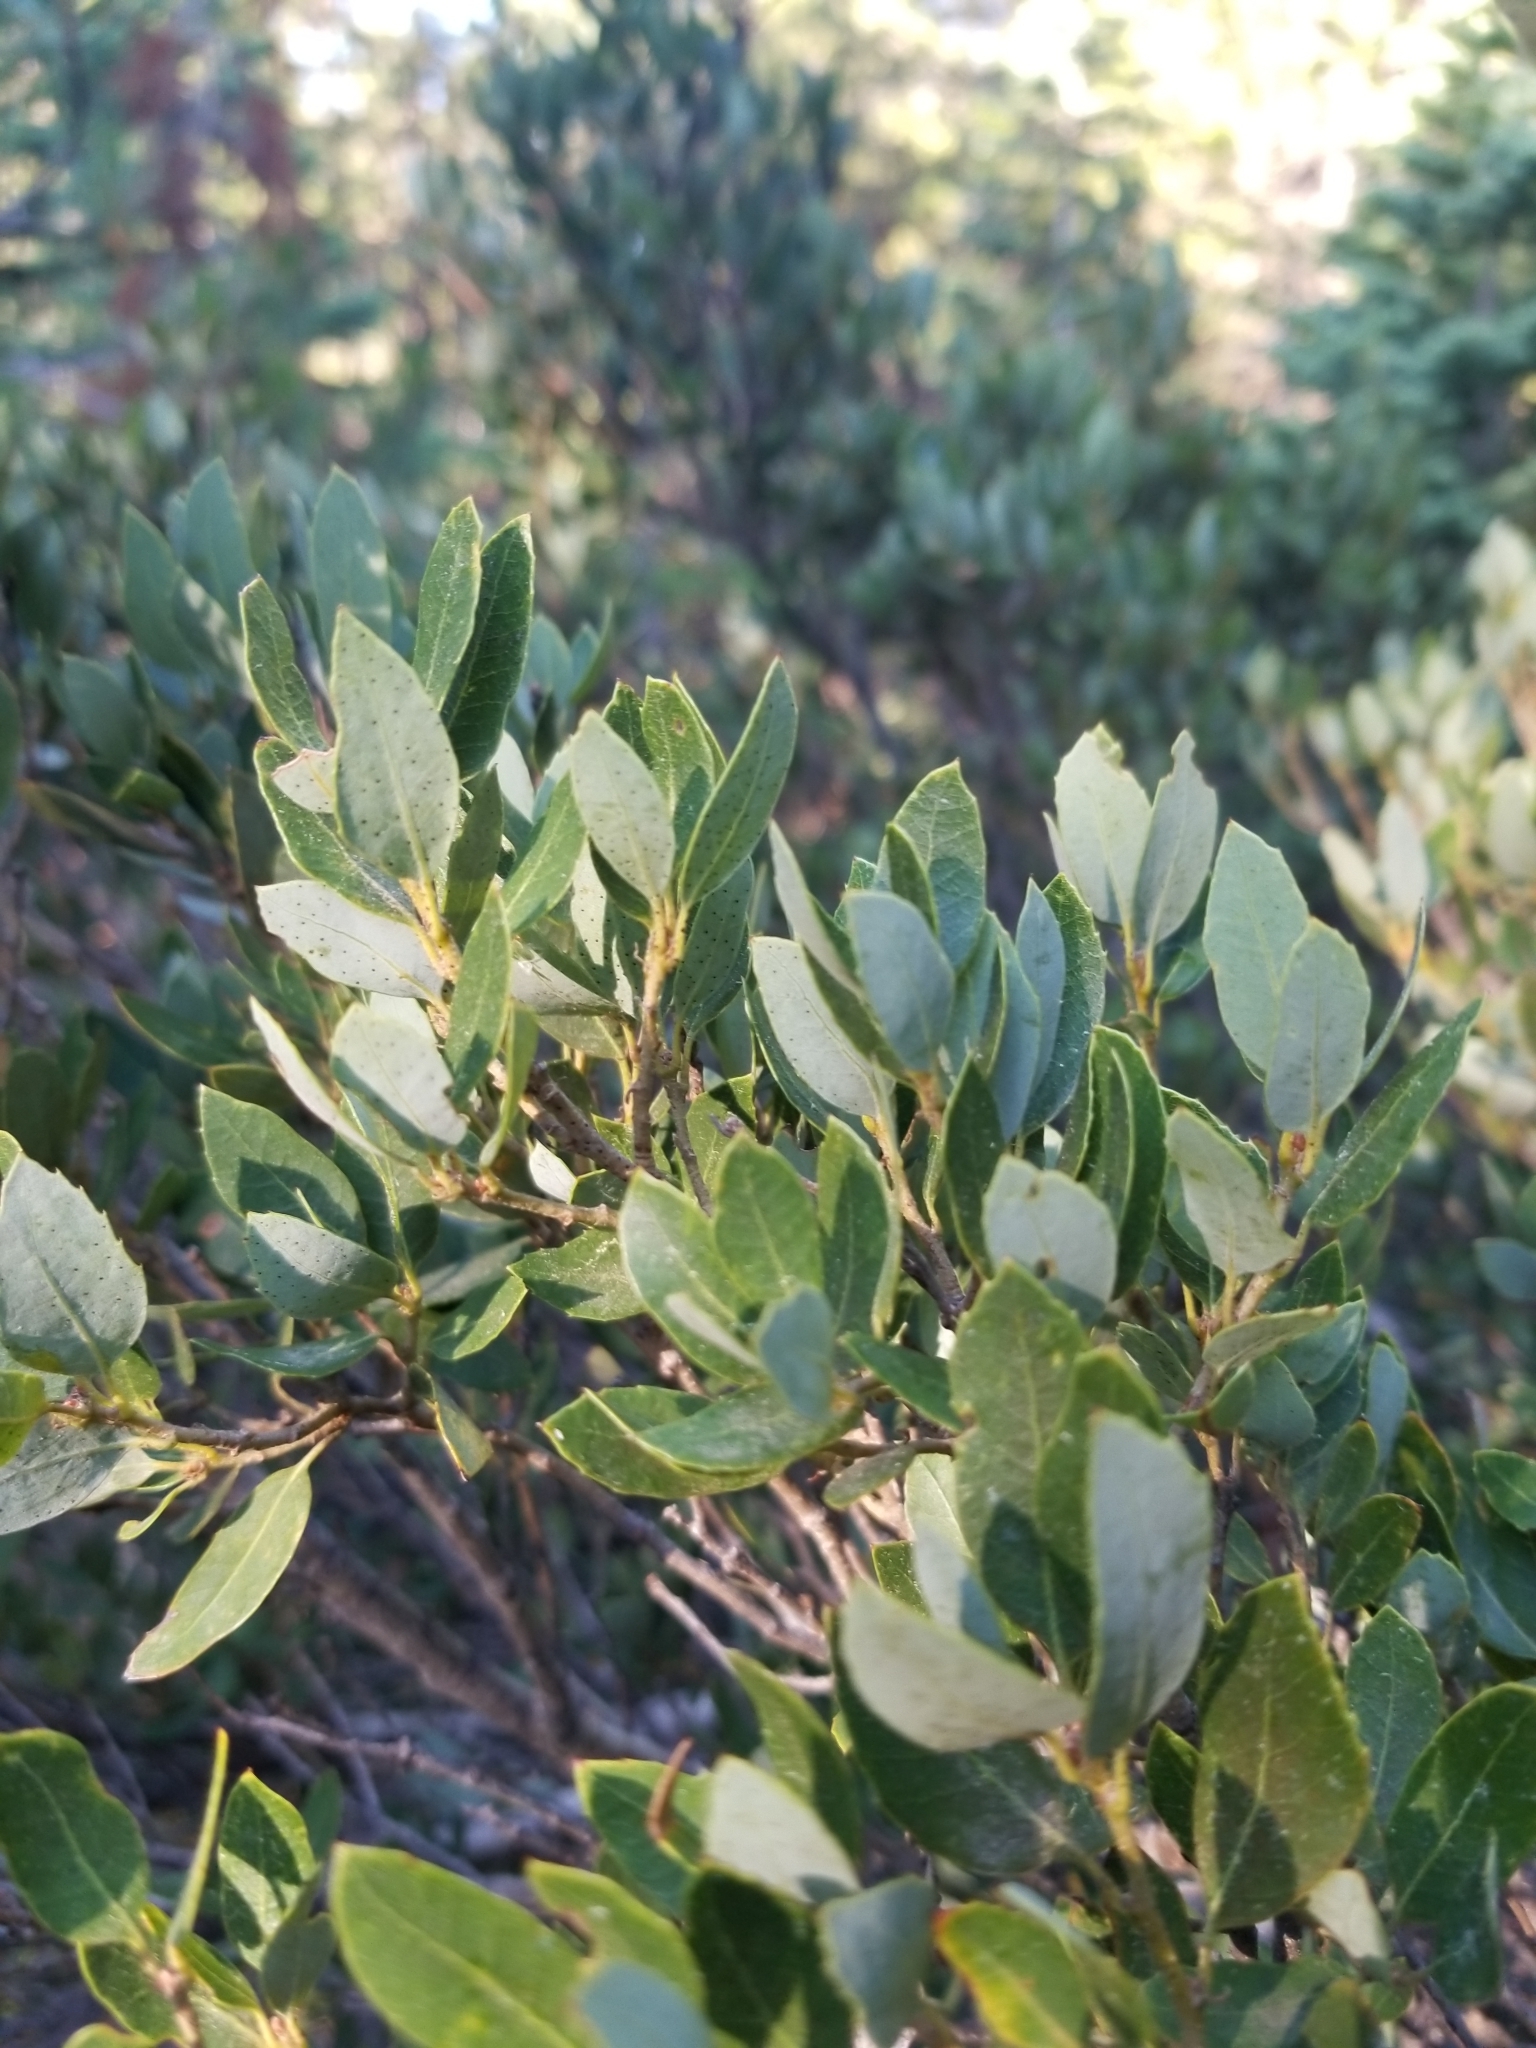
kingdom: Plantae
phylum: Tracheophyta
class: Magnoliopsida
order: Fagales
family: Fagaceae
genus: Quercus
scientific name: Quercus vacciniifolia
